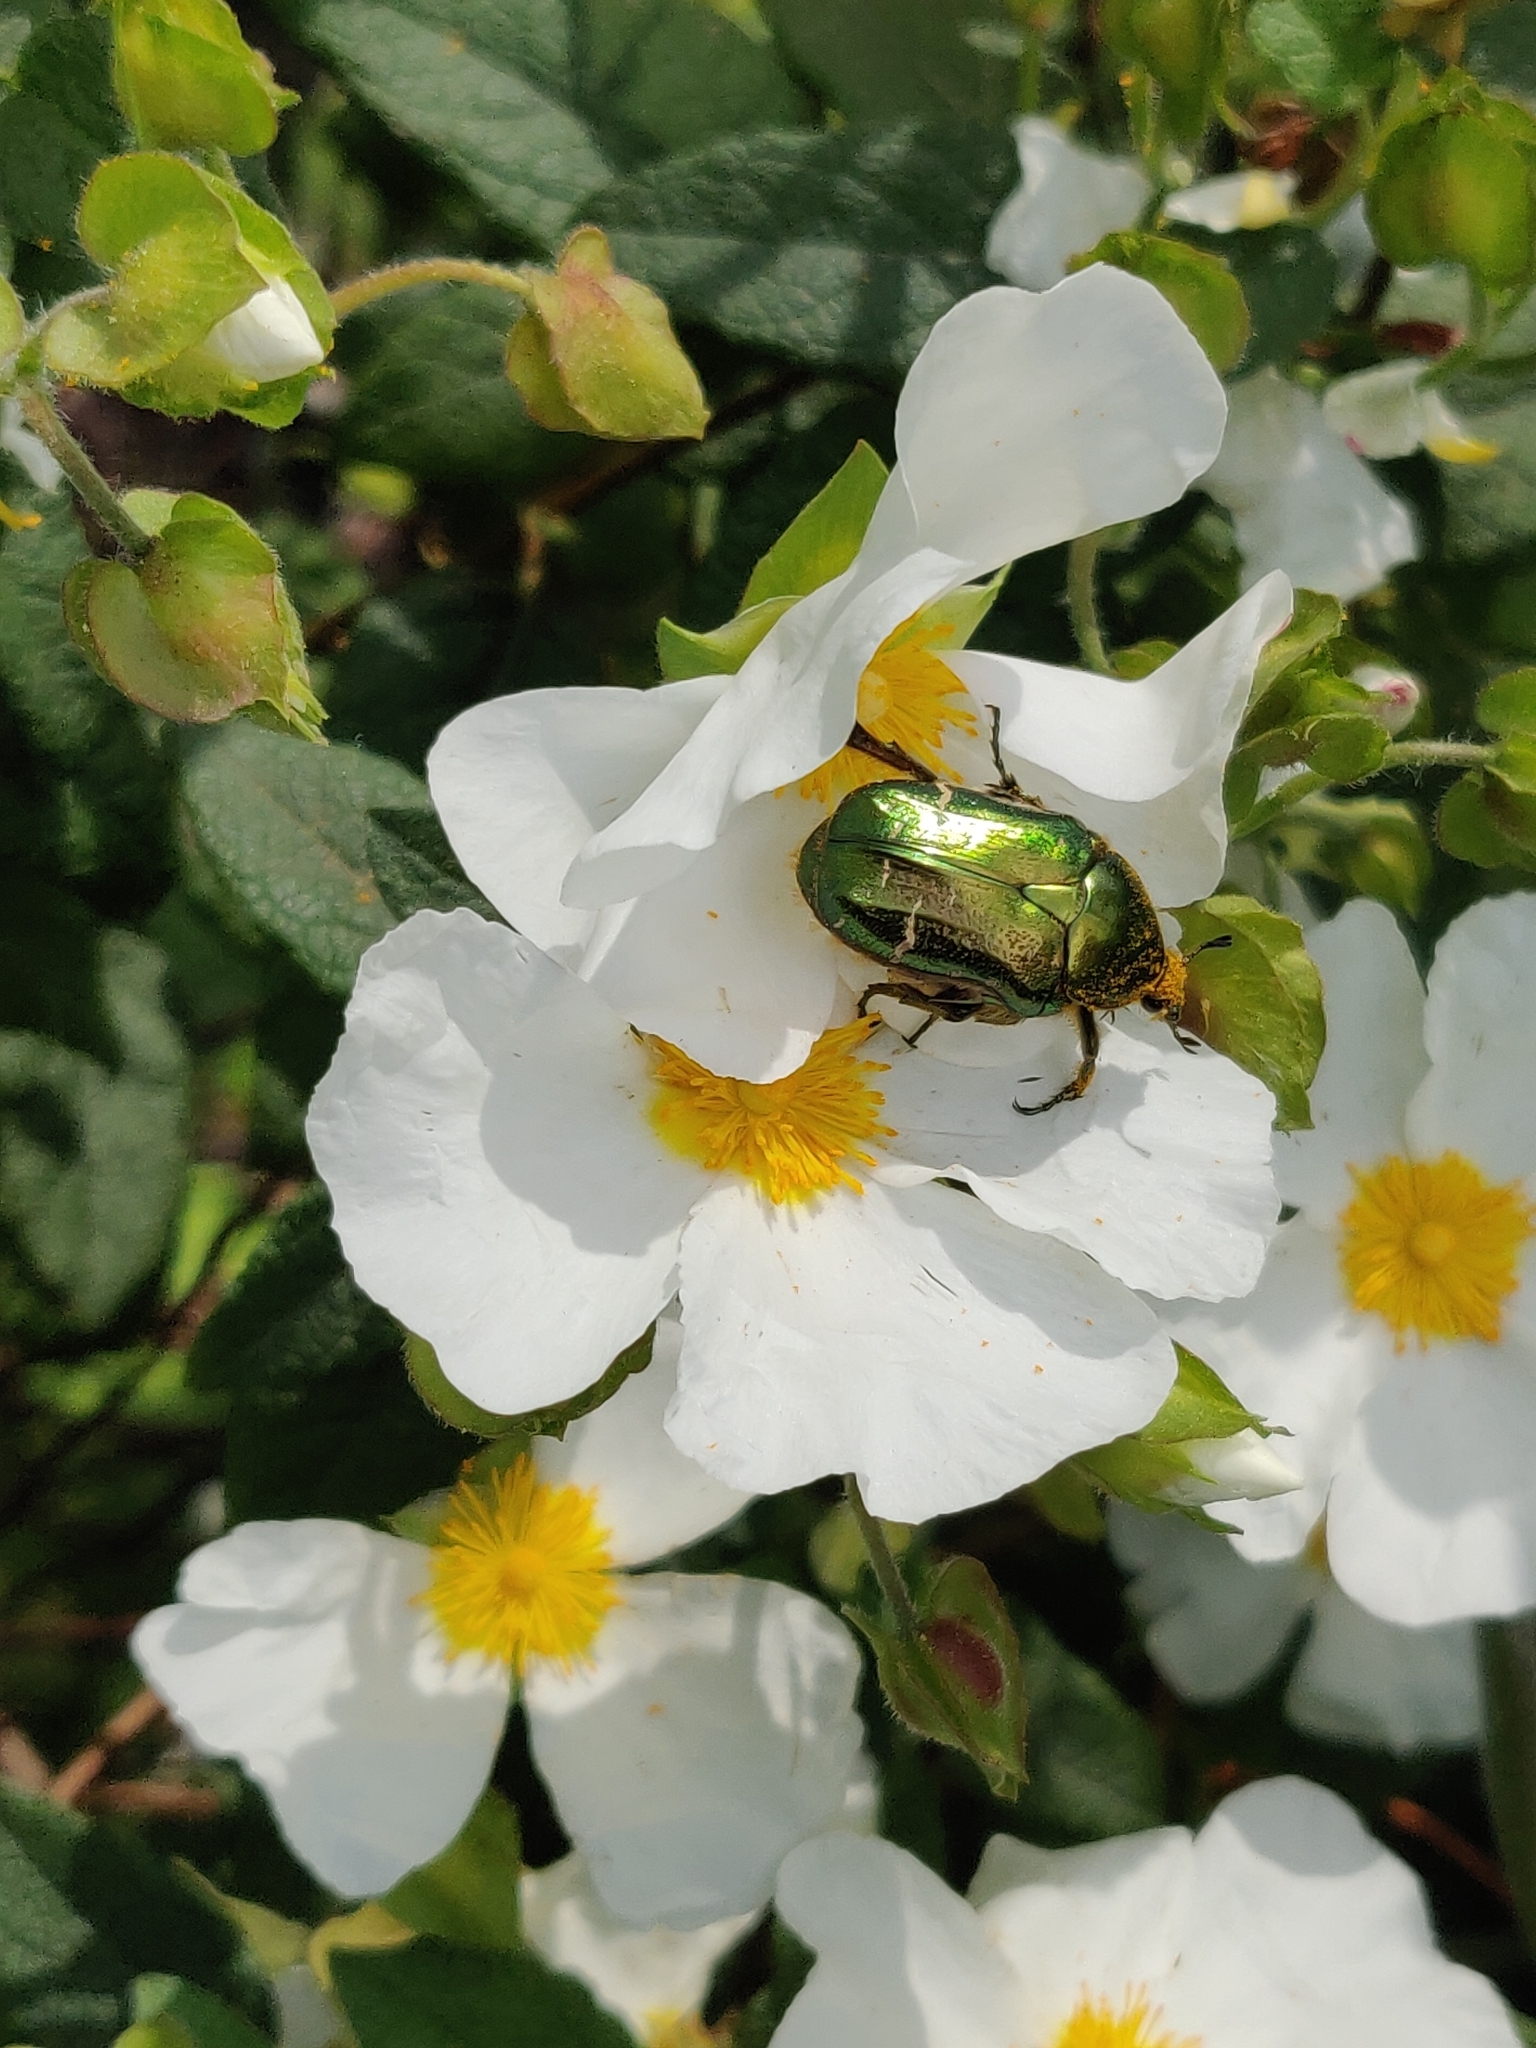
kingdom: Animalia
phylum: Arthropoda
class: Insecta
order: Coleoptera
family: Scarabaeidae
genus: Cetonia
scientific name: Cetonia aurata
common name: Rose chafer
